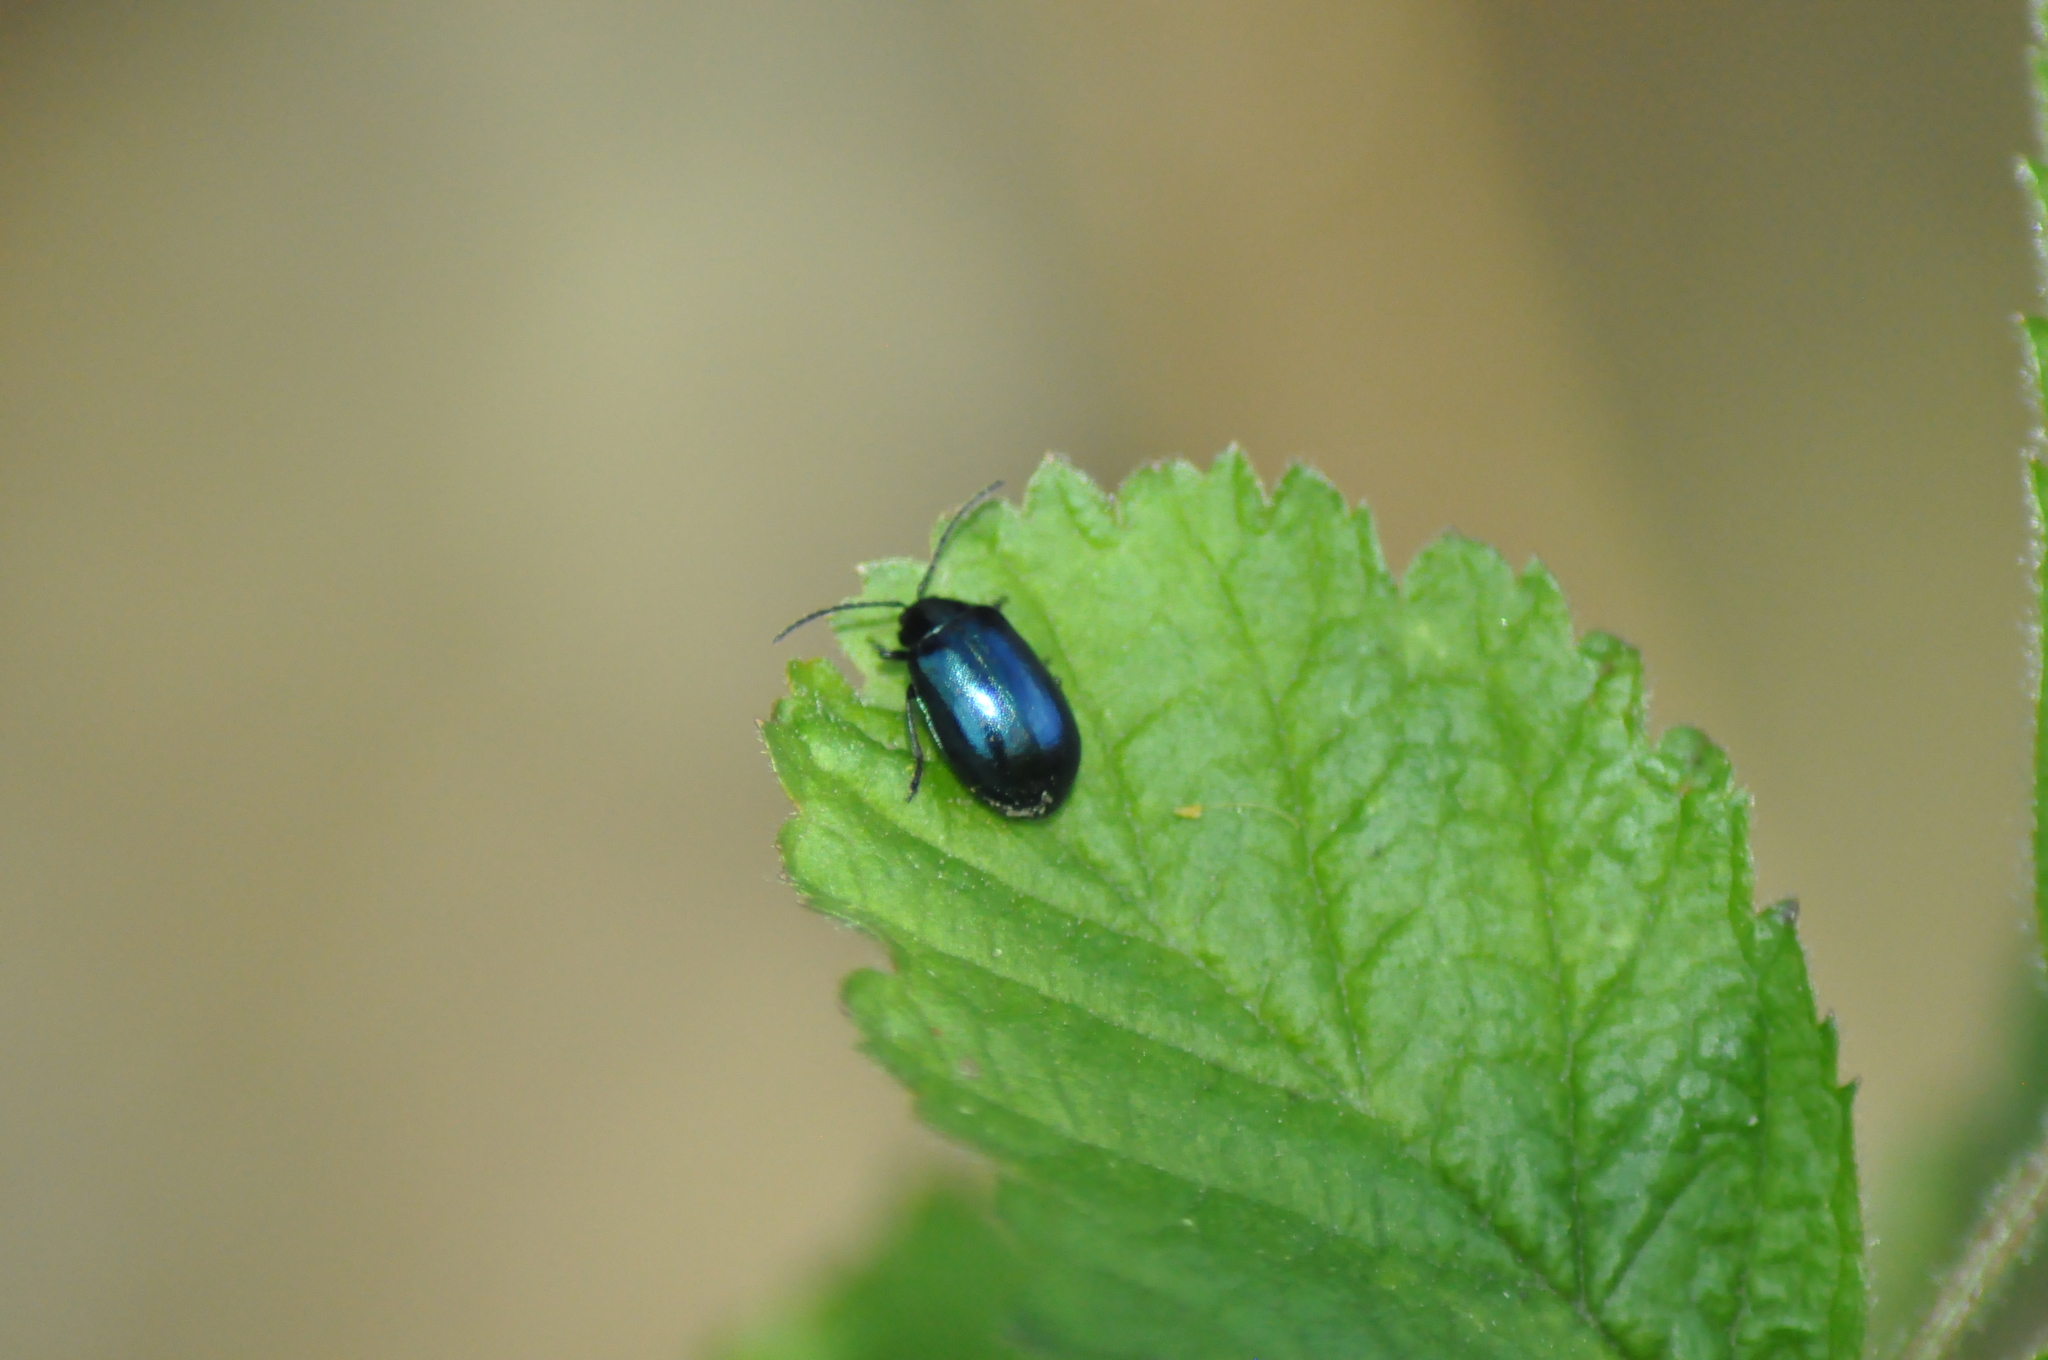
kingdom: Animalia
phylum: Arthropoda
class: Insecta
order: Coleoptera
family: Chrysomelidae
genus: Agelastica
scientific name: Agelastica alni
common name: Alder leaf beetle
